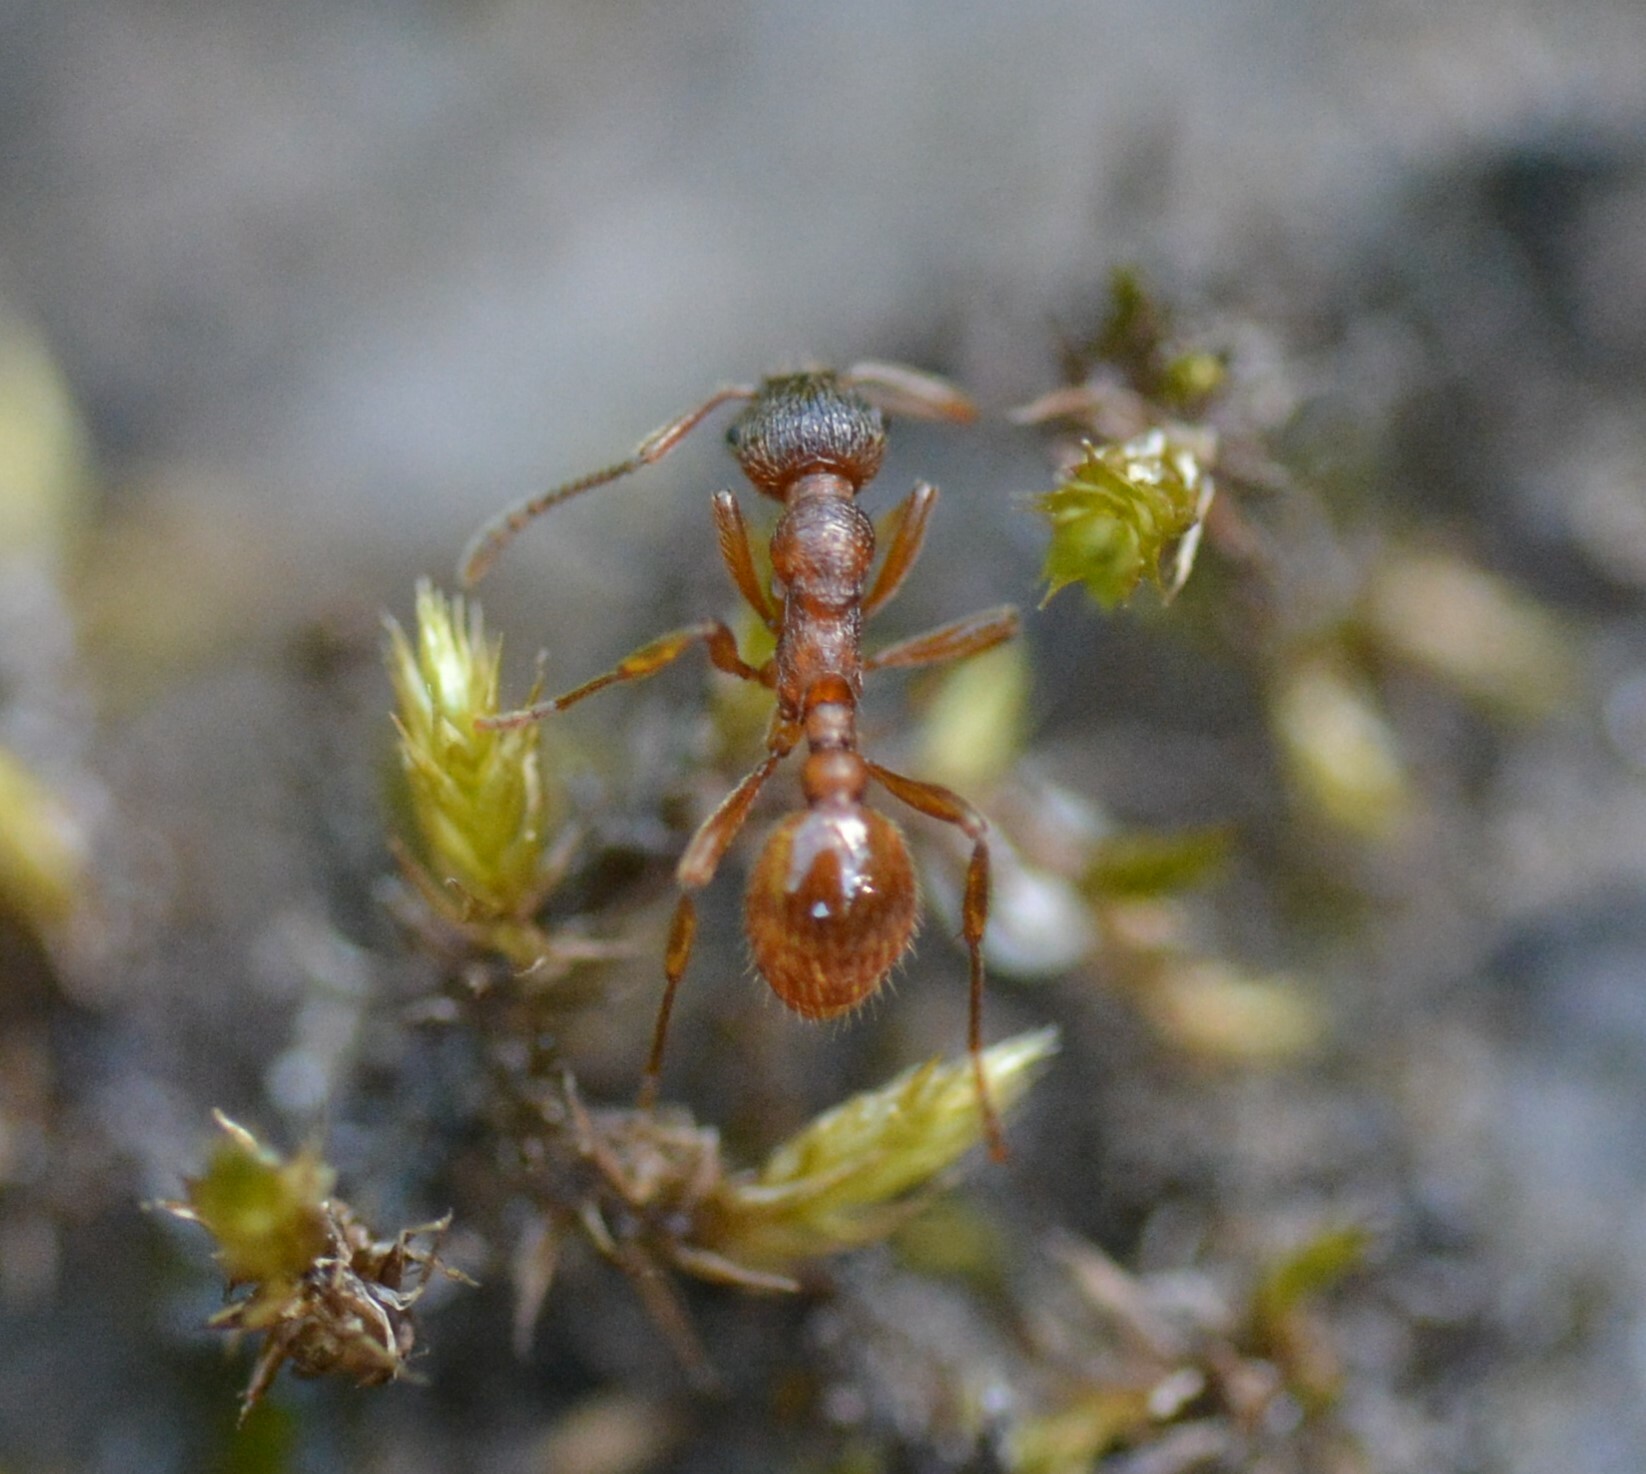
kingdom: Animalia
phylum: Arthropoda
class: Insecta
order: Hymenoptera
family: Formicidae
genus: Myrmica
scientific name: Myrmica rubra
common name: European fire ant
